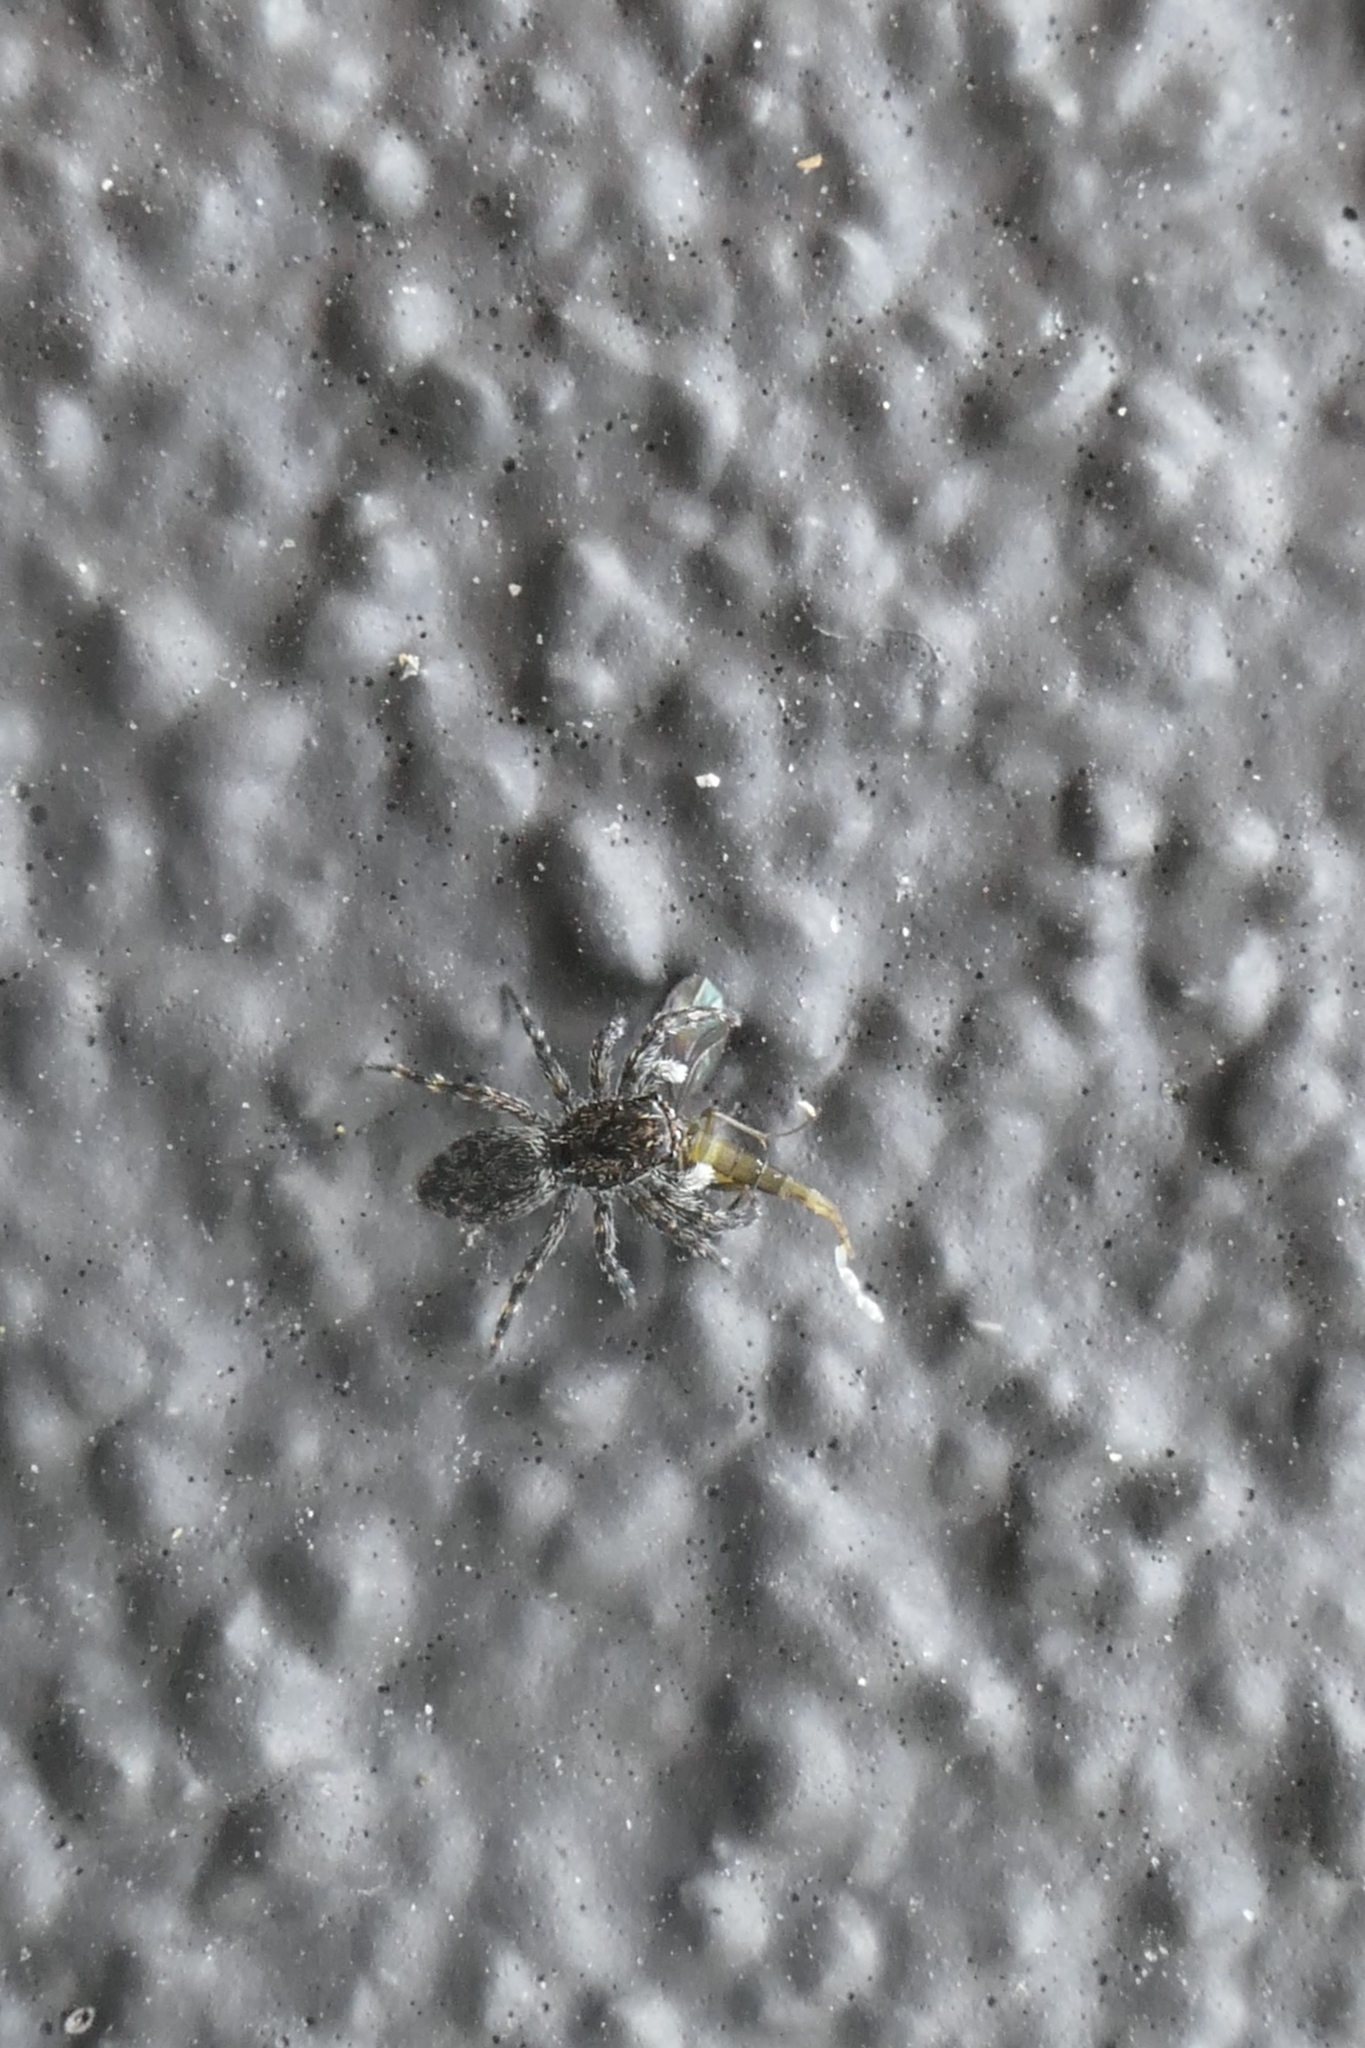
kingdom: Animalia
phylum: Arthropoda
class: Arachnida
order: Araneae
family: Salticidae
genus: Adoxotoma
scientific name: Adoxotoma forsteri
